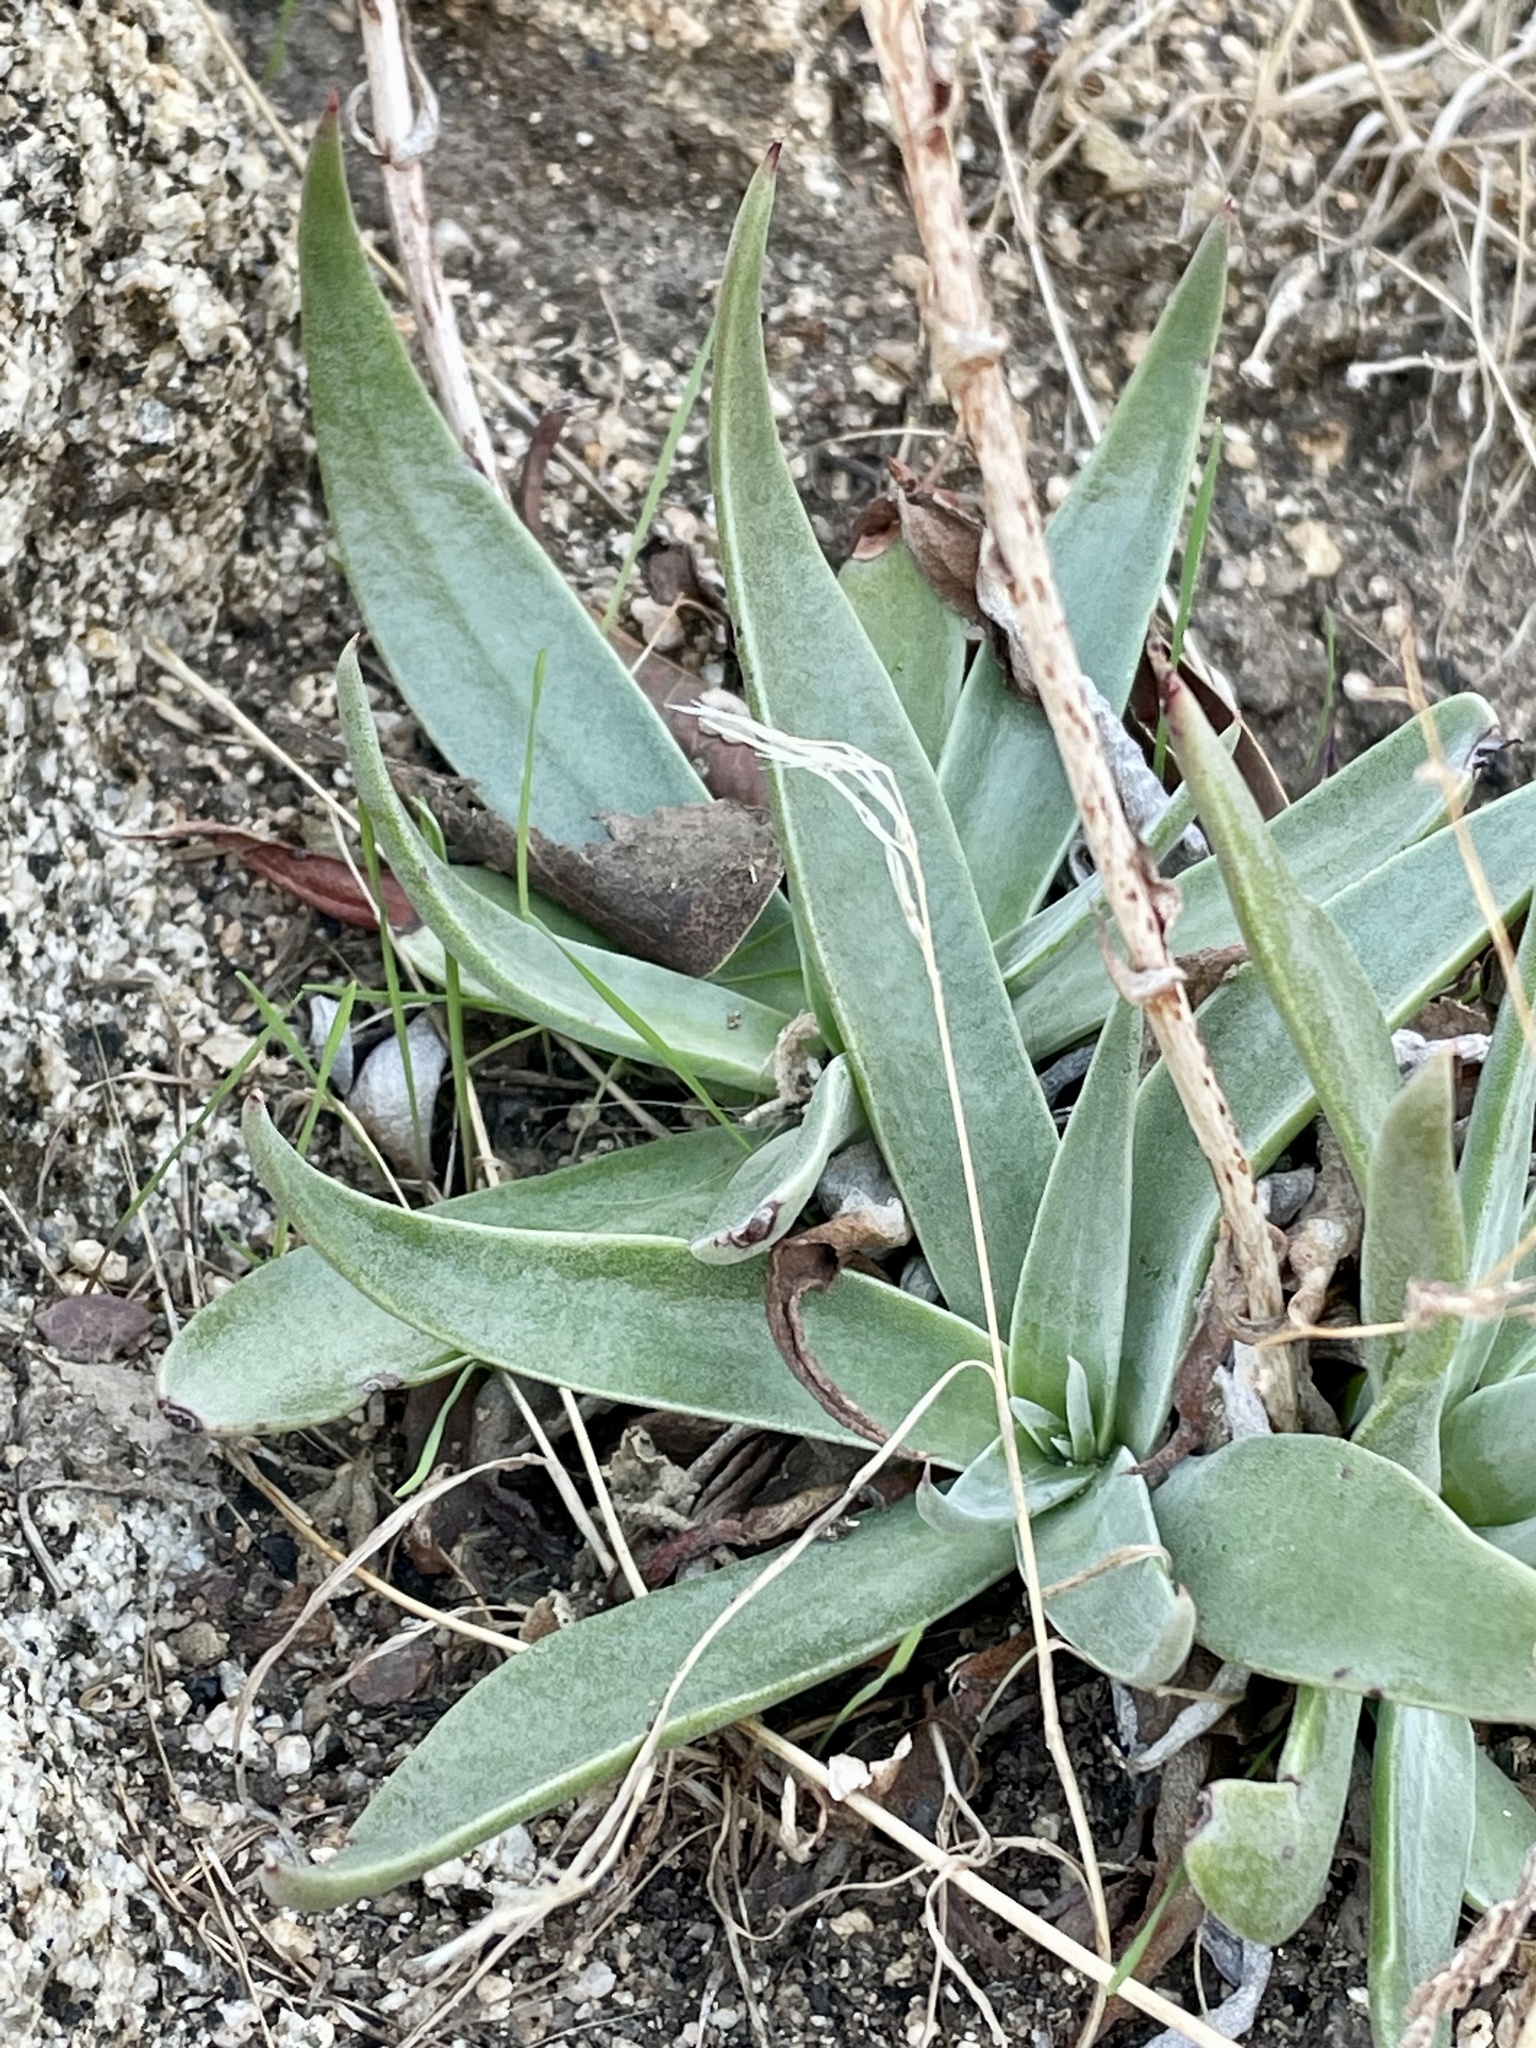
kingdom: Plantae
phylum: Tracheophyta
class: Magnoliopsida
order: Saxifragales
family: Crassulaceae
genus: Dudleya
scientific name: Dudleya saxosa
